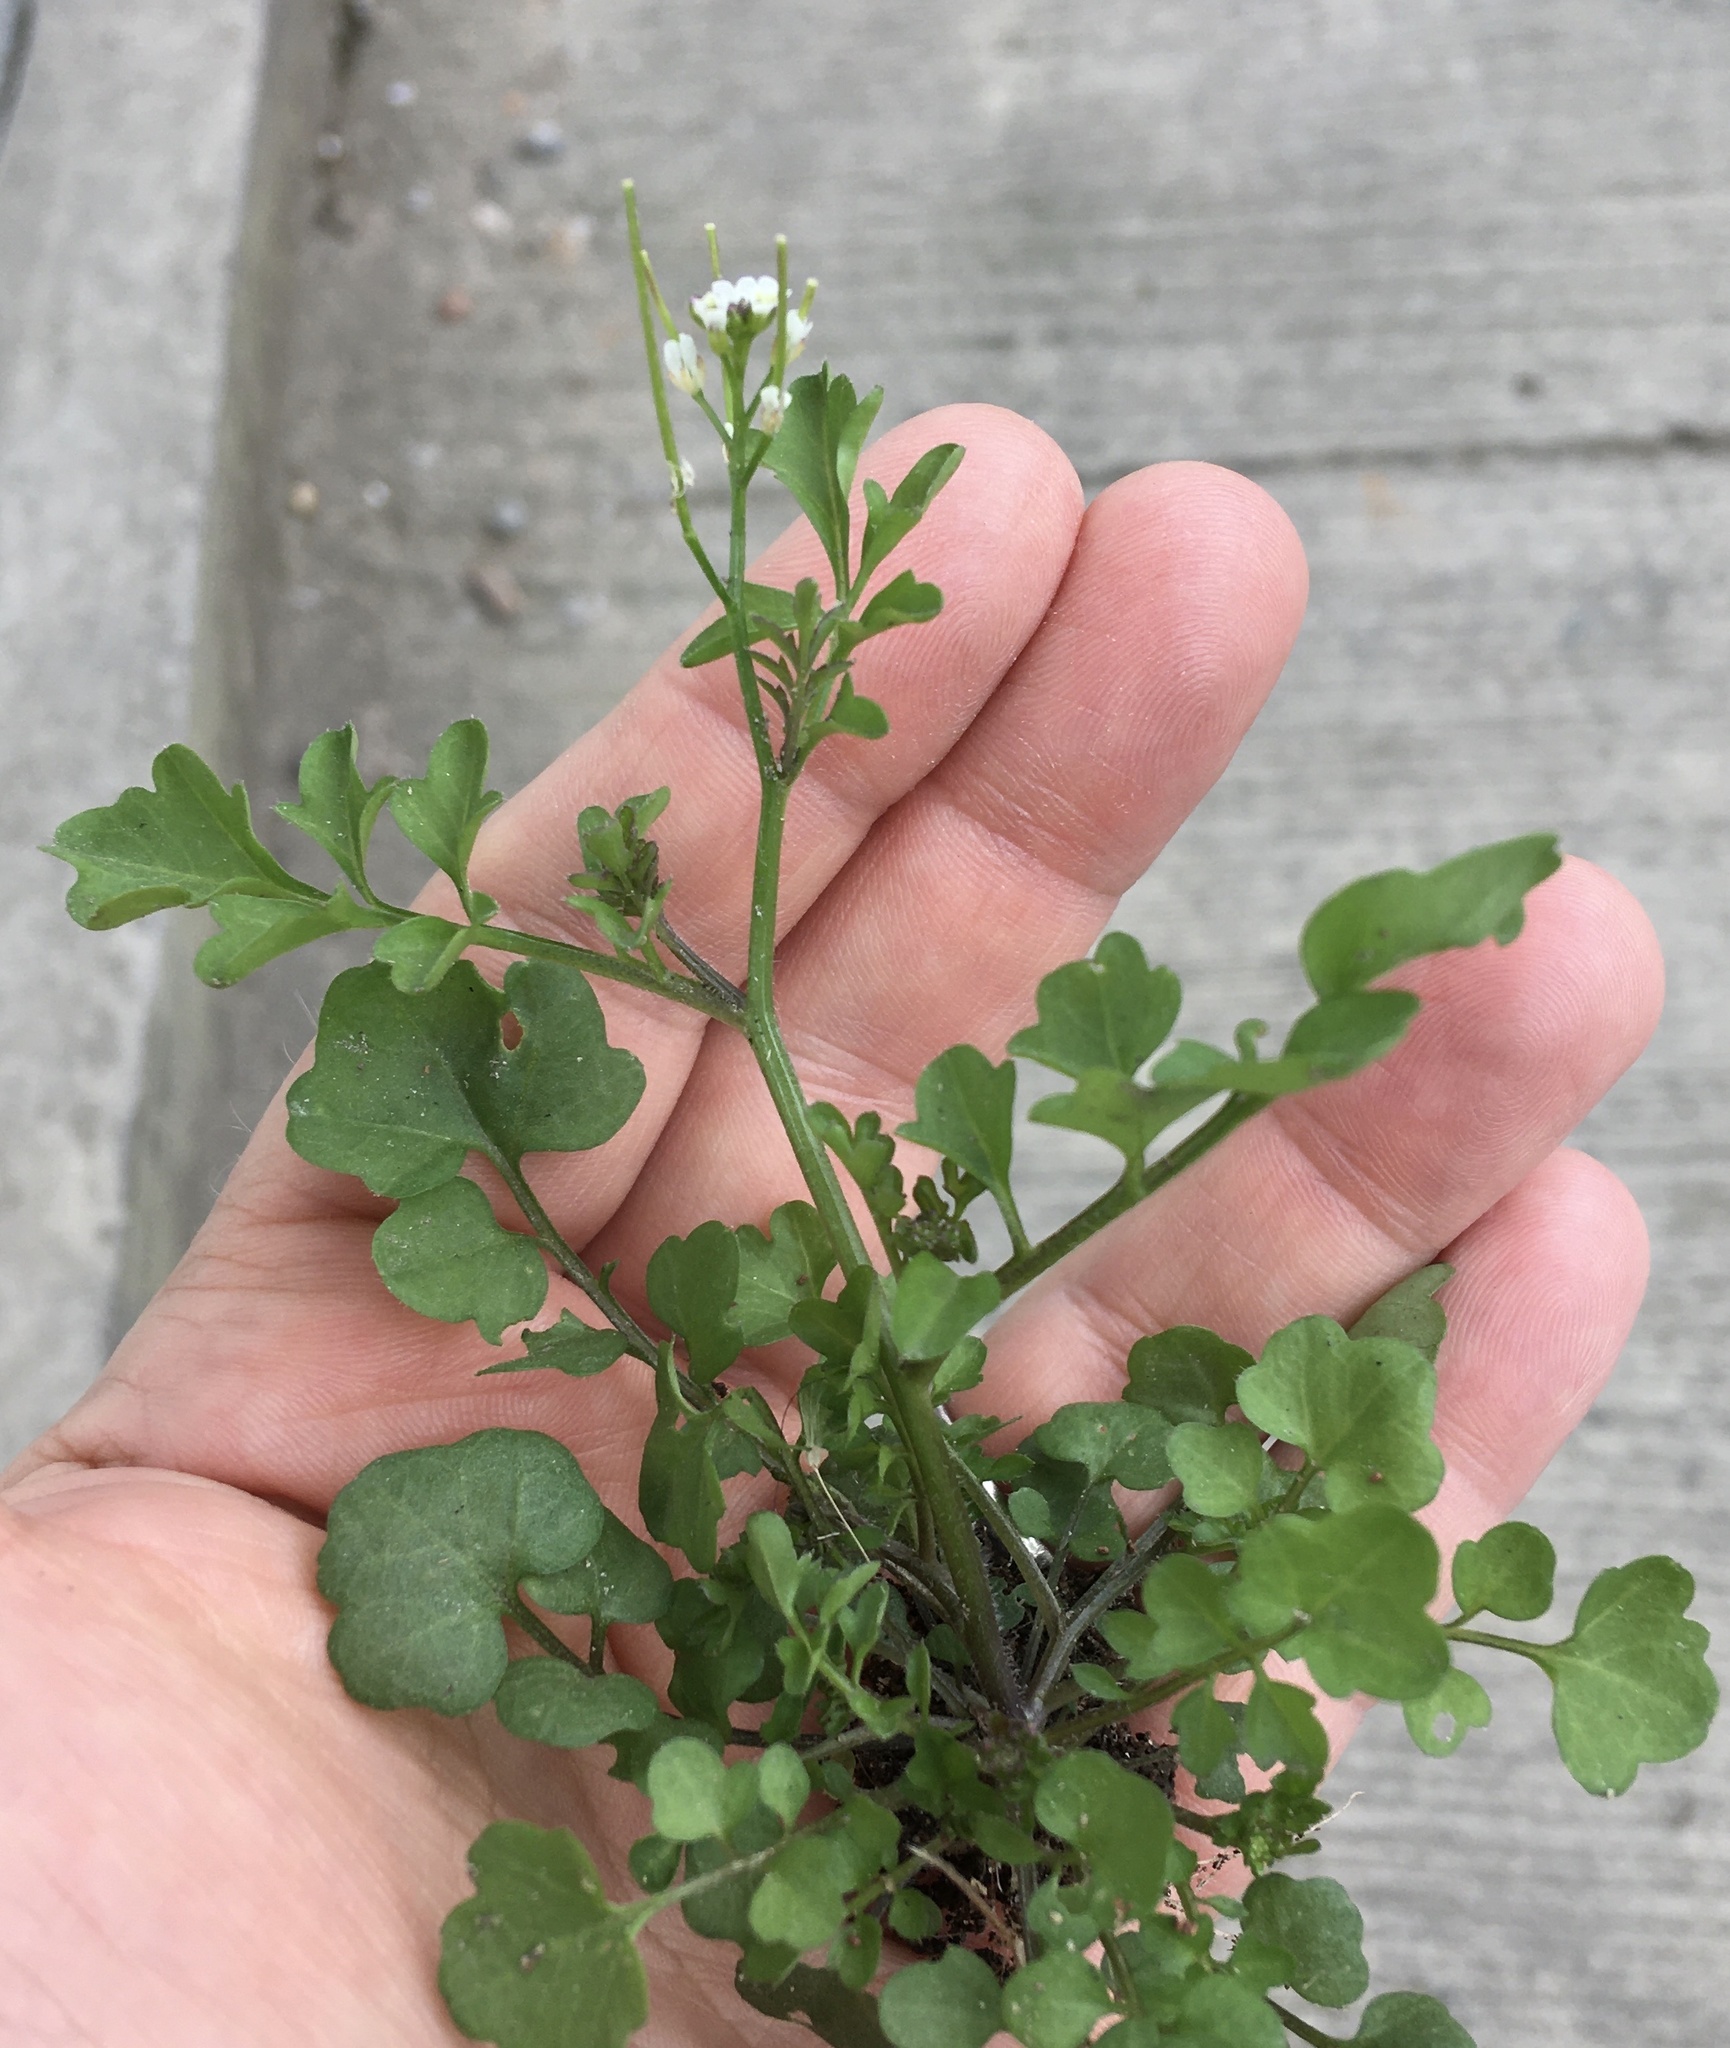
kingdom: Plantae
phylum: Tracheophyta
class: Magnoliopsida
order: Brassicales
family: Brassicaceae
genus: Cardamine
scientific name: Cardamine hirsuta
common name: Hairy bittercress
